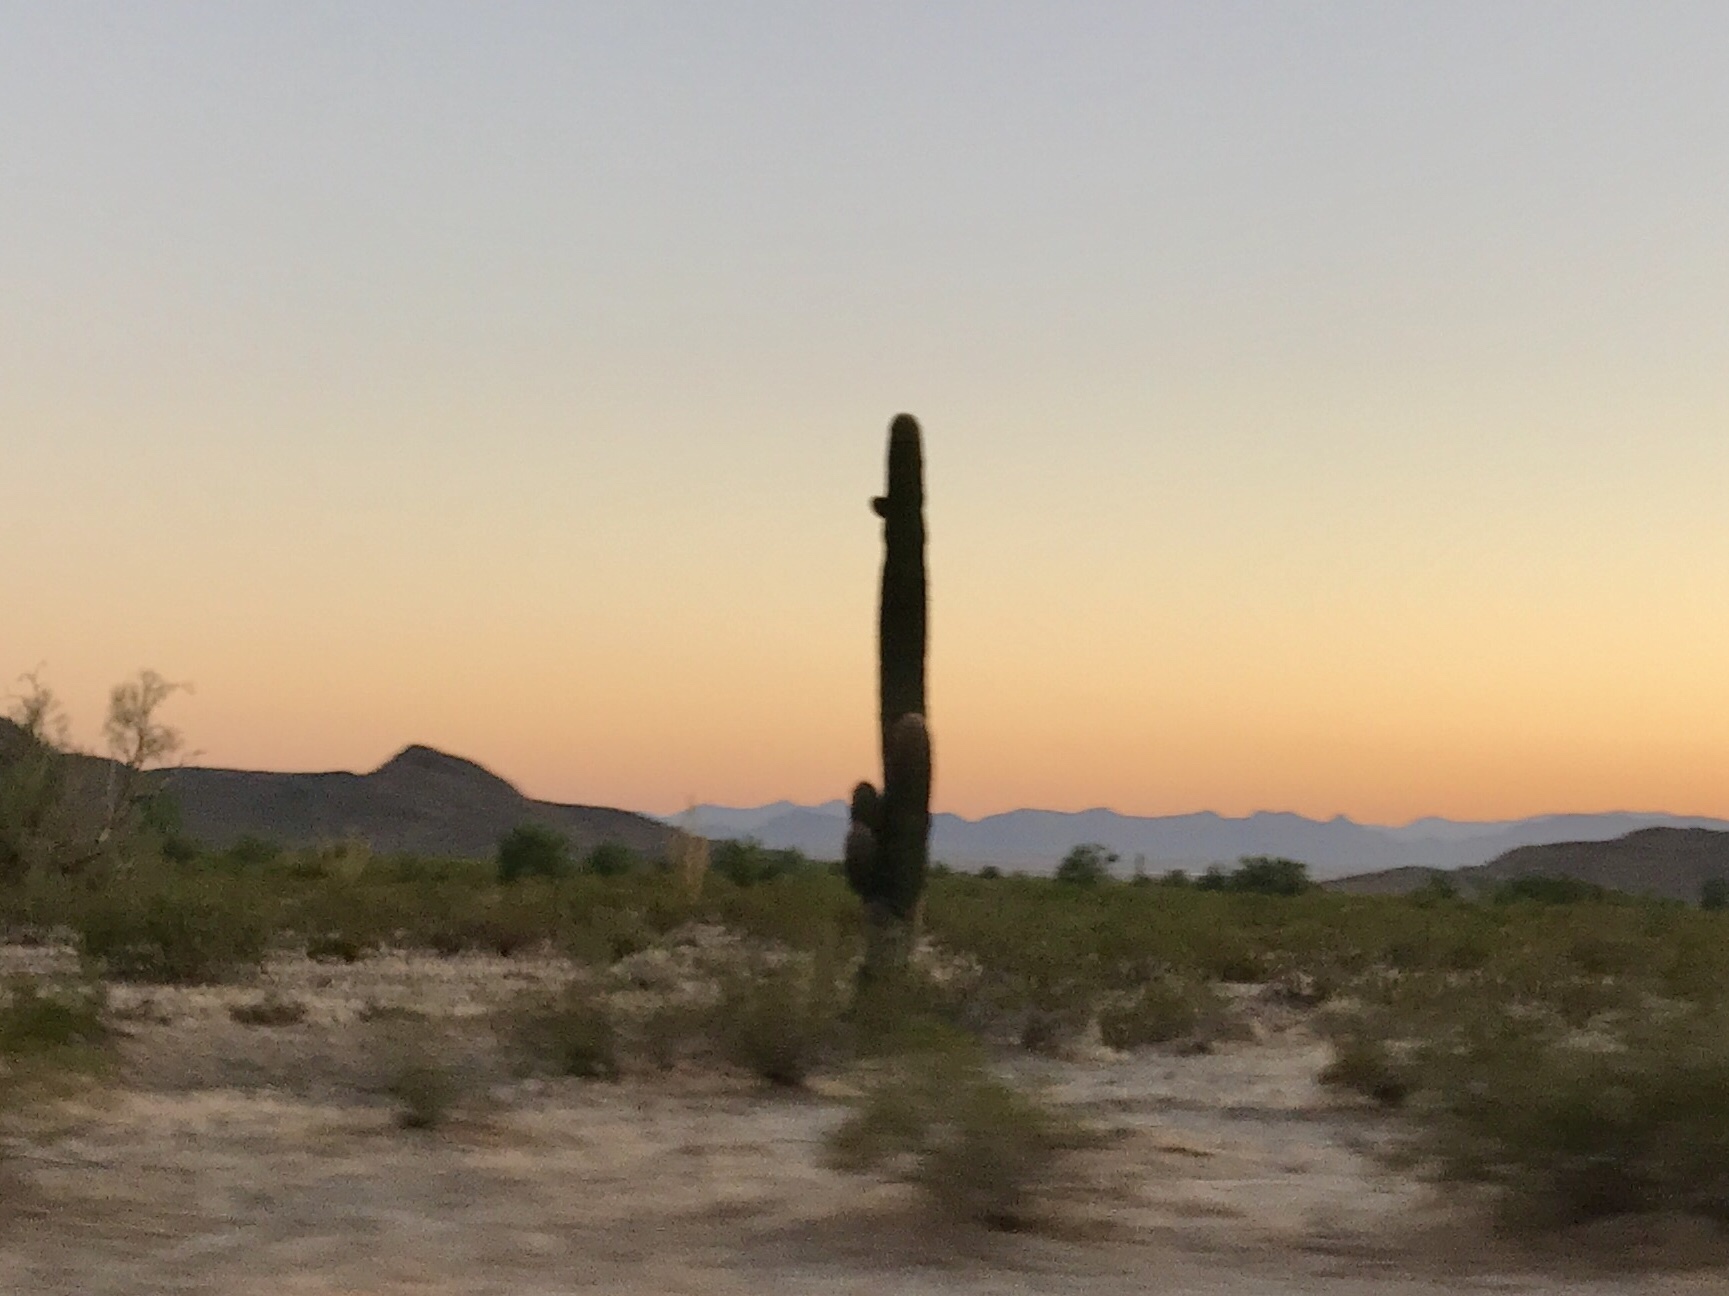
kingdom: Plantae
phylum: Tracheophyta
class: Magnoliopsida
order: Caryophyllales
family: Cactaceae
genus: Carnegiea
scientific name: Carnegiea gigantea
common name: Saguaro
